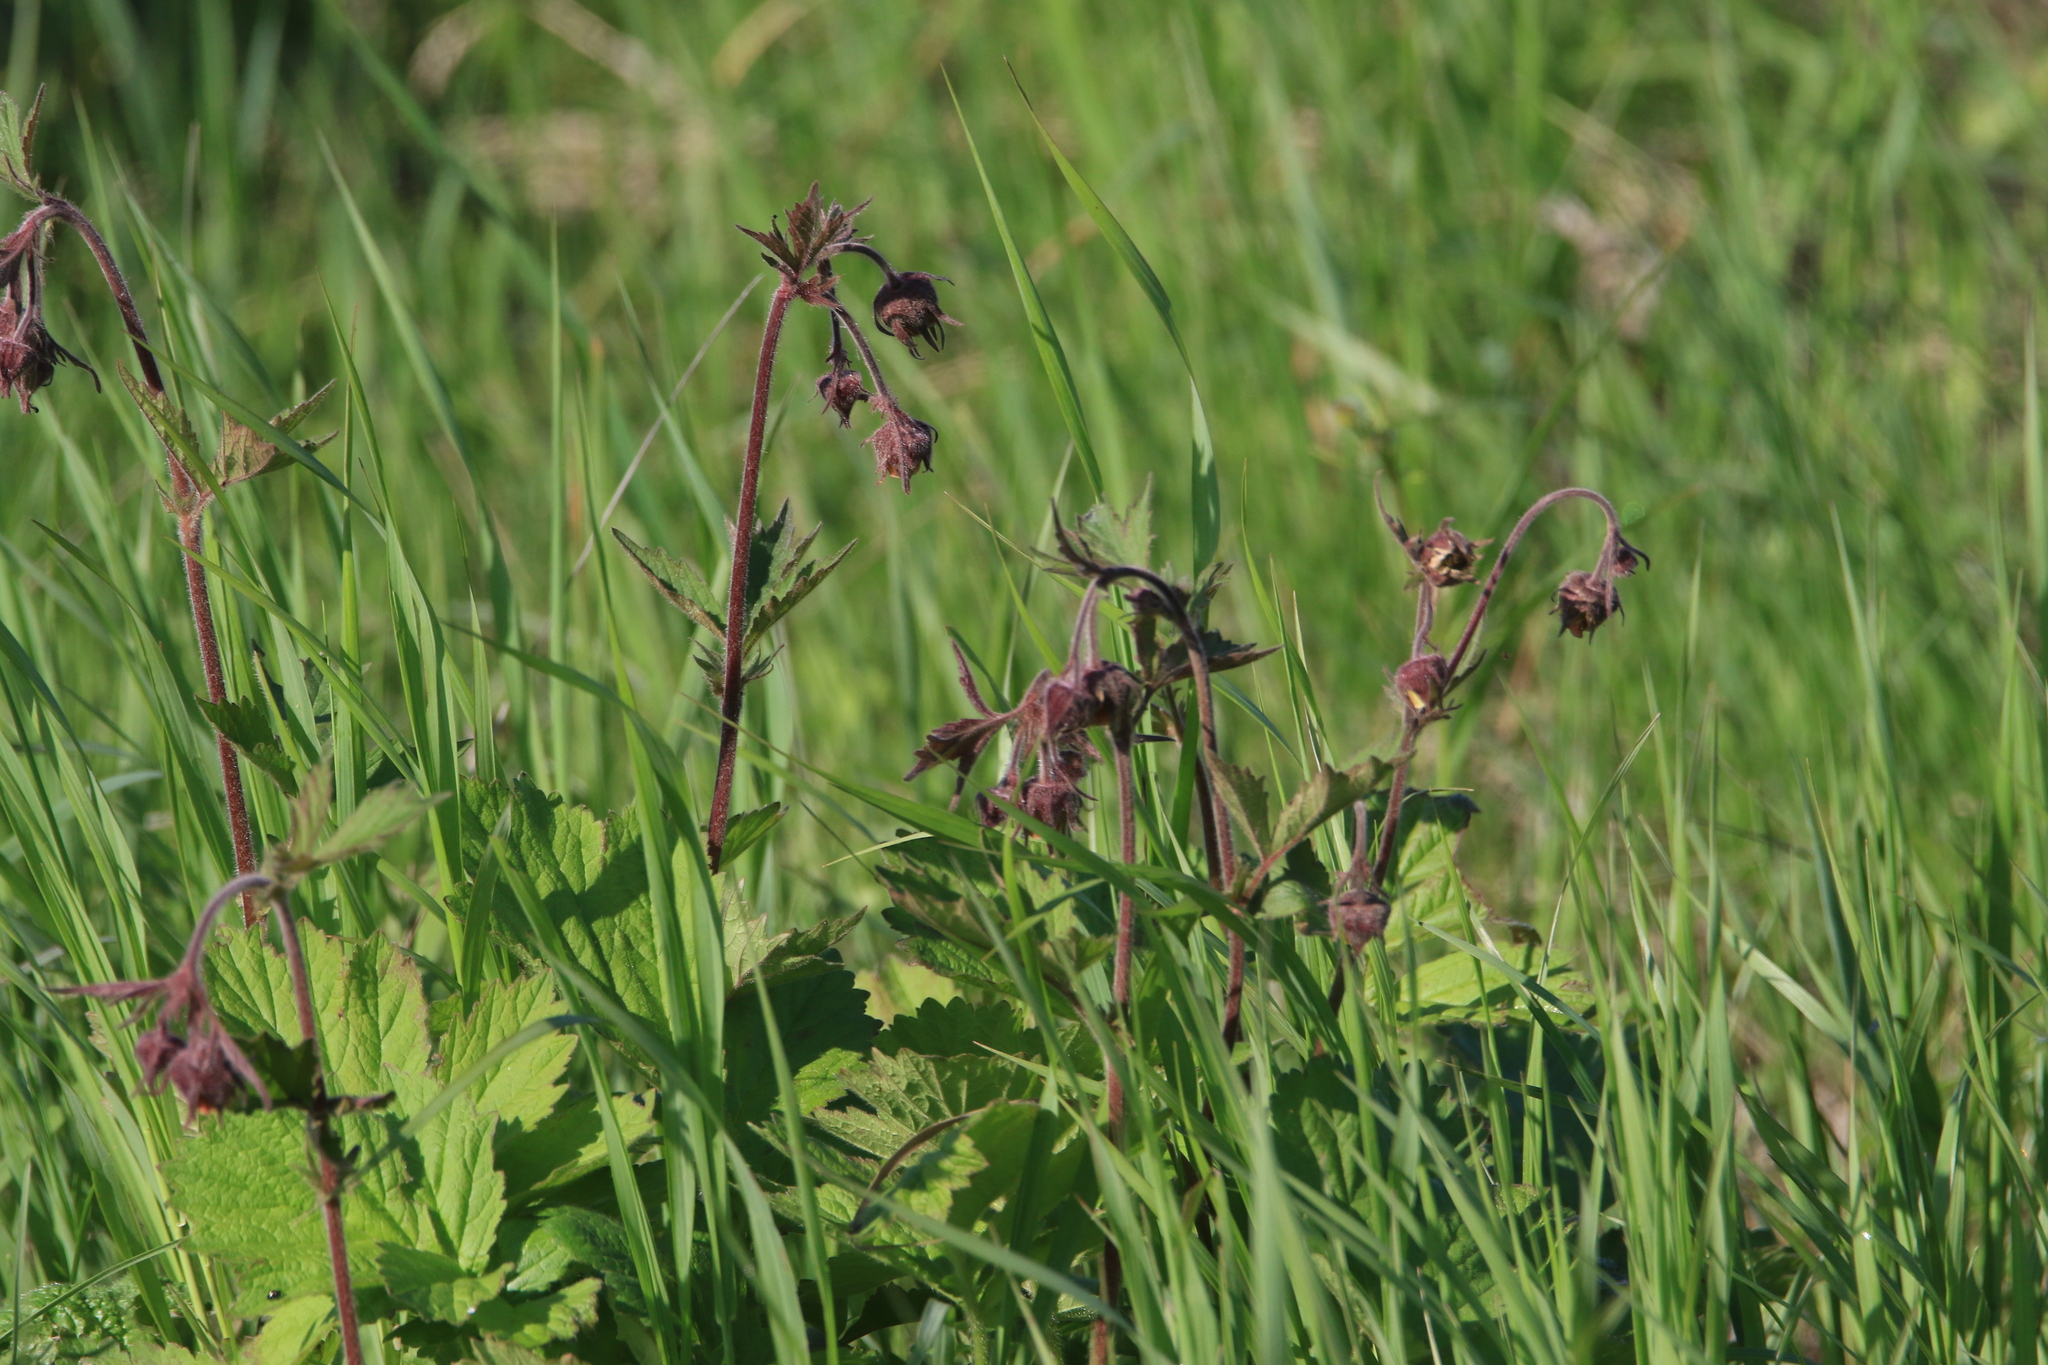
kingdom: Plantae
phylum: Tracheophyta
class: Magnoliopsida
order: Rosales
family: Rosaceae
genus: Geum
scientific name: Geum rivale
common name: Water avens
